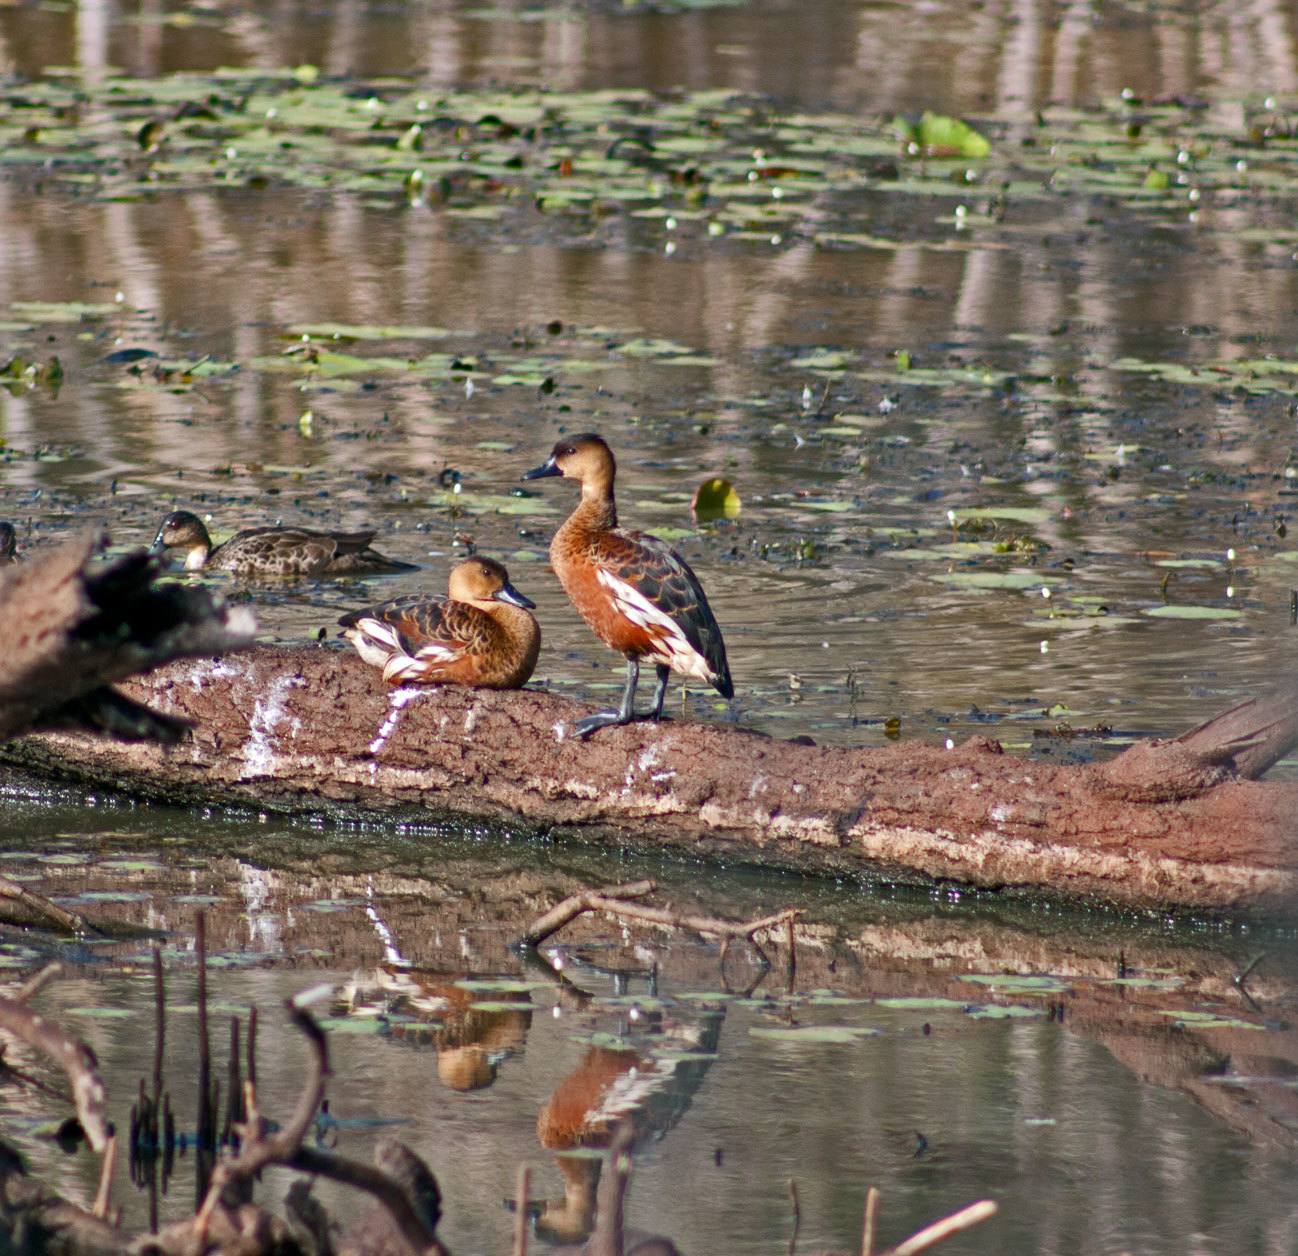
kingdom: Animalia
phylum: Chordata
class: Aves
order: Anseriformes
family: Anatidae
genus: Dendrocygna
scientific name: Dendrocygna arcuata
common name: Wandering whistling-duck
